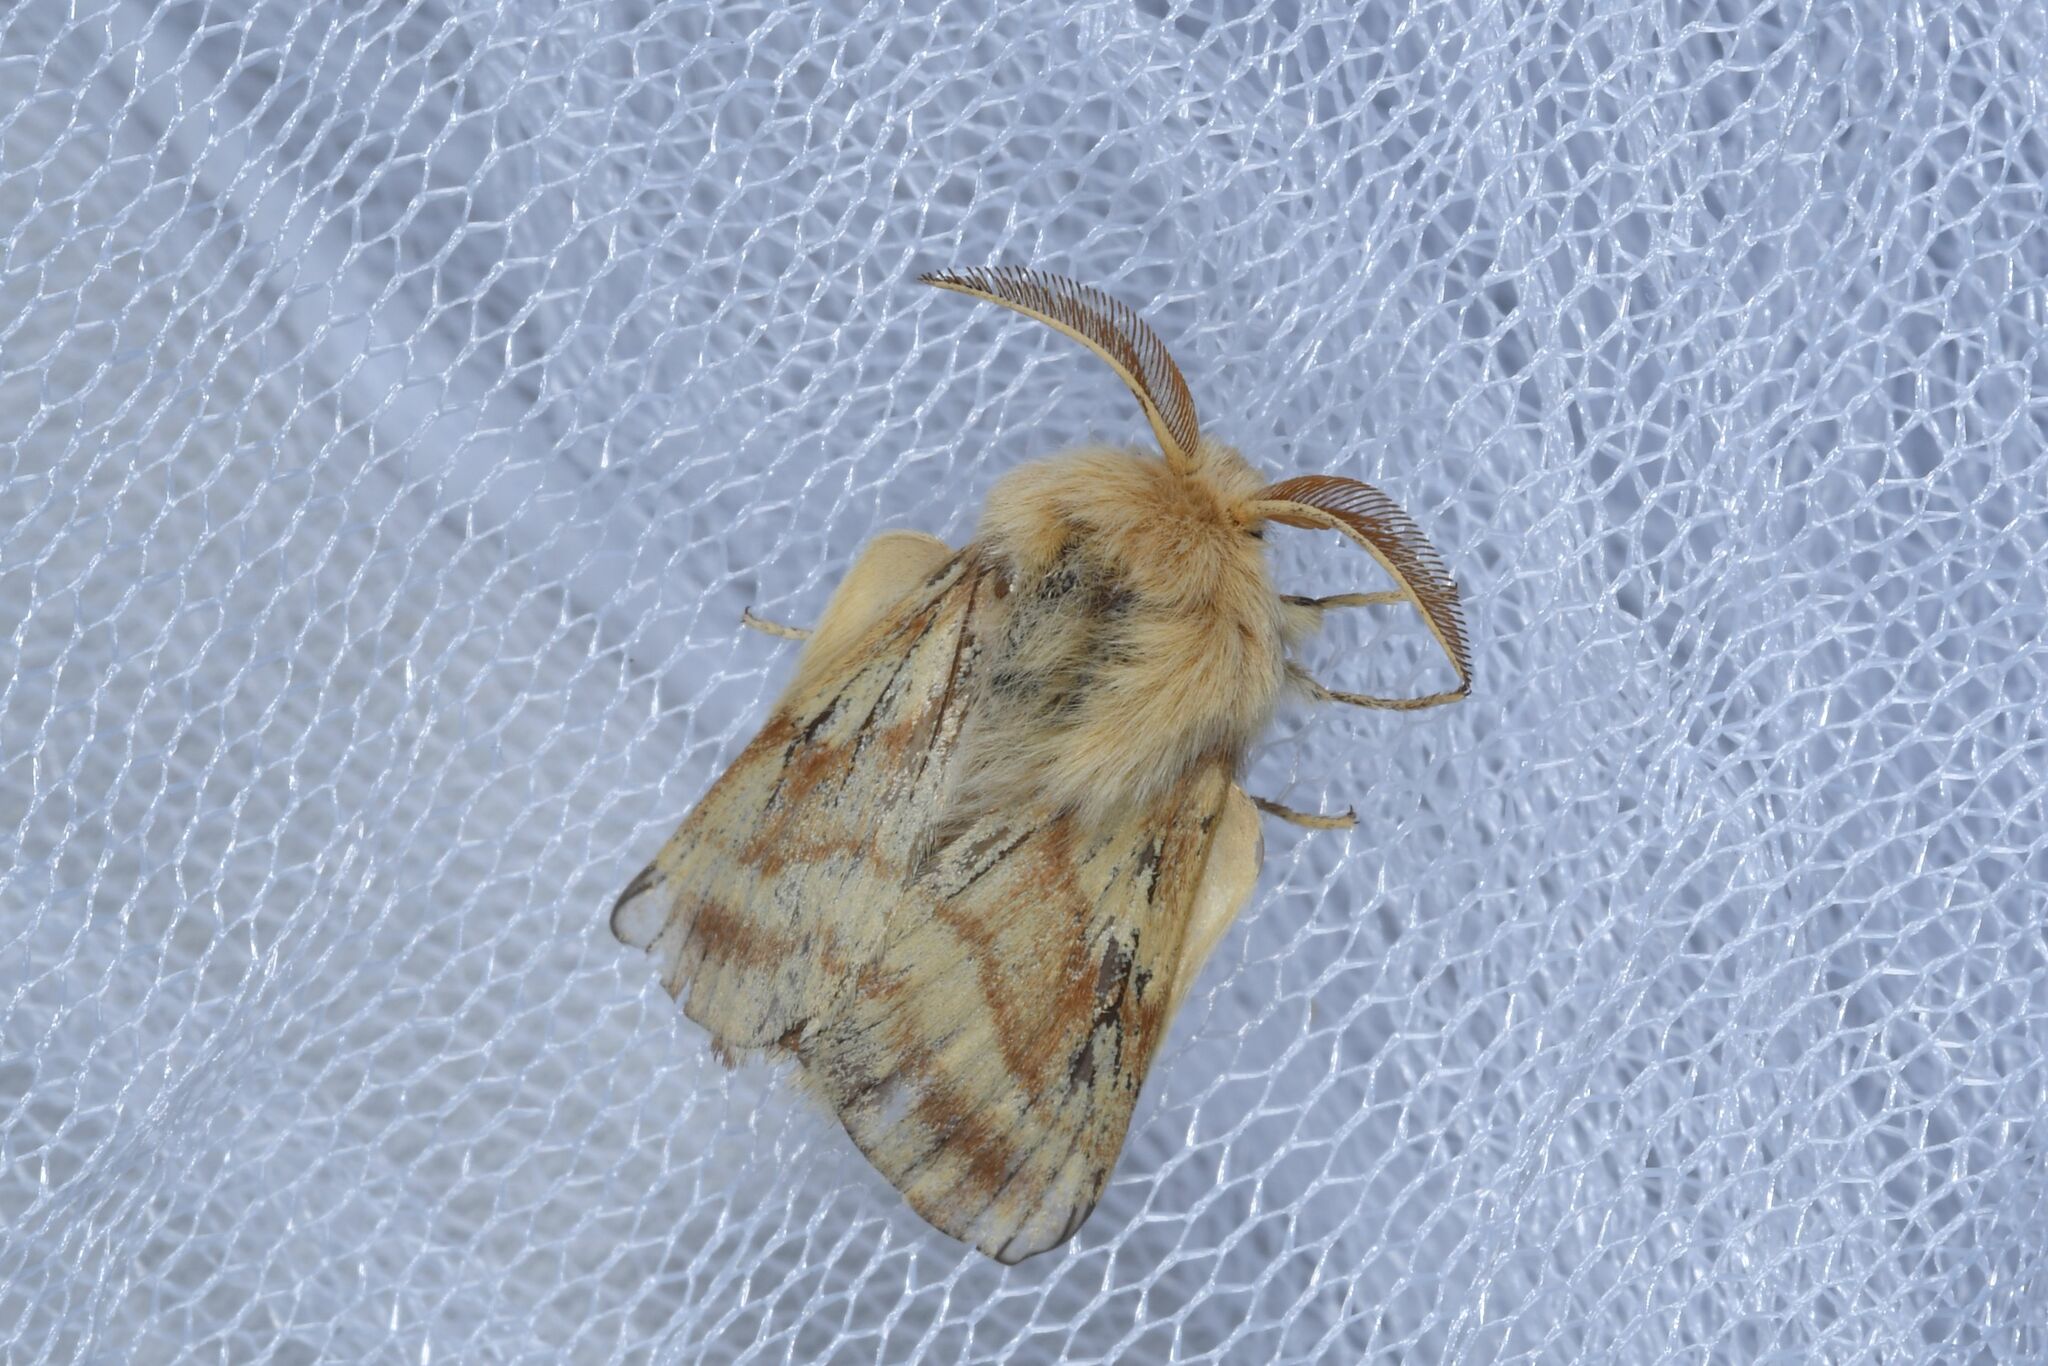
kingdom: Animalia
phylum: Arthropoda
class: Insecta
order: Lepidoptera
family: Lasiocampidae
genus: Malacosoma
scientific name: Malacosoma castrense
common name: Ground lackey
